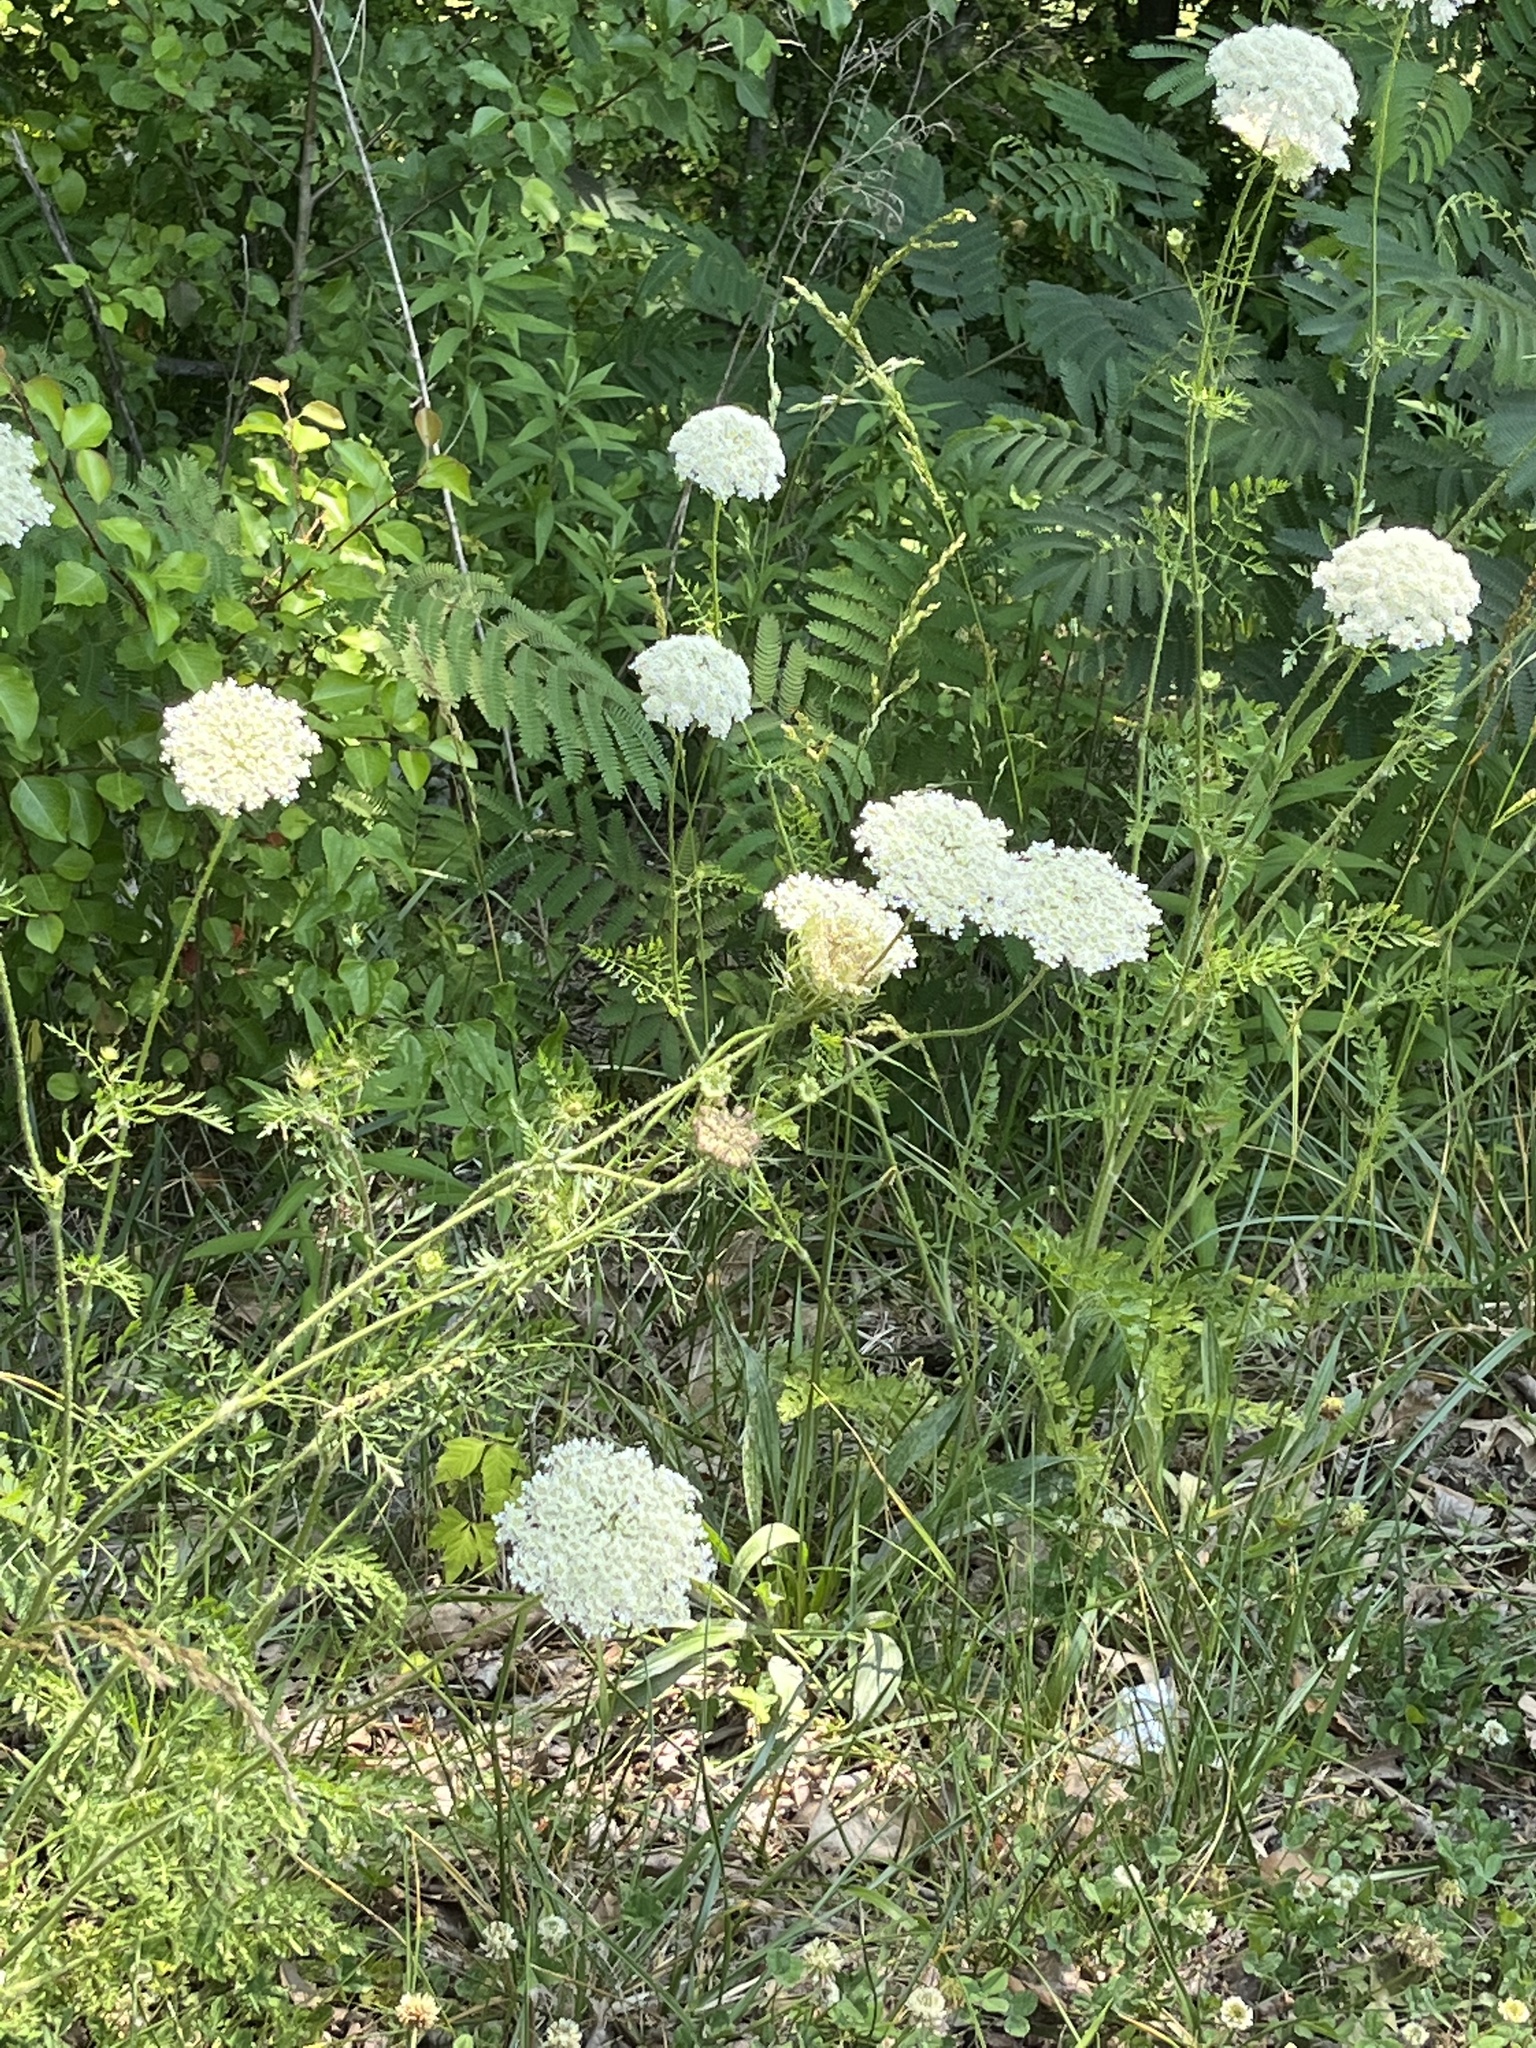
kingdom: Plantae
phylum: Tracheophyta
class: Magnoliopsida
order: Apiales
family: Apiaceae
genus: Daucus
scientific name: Daucus carota
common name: Wild carrot
